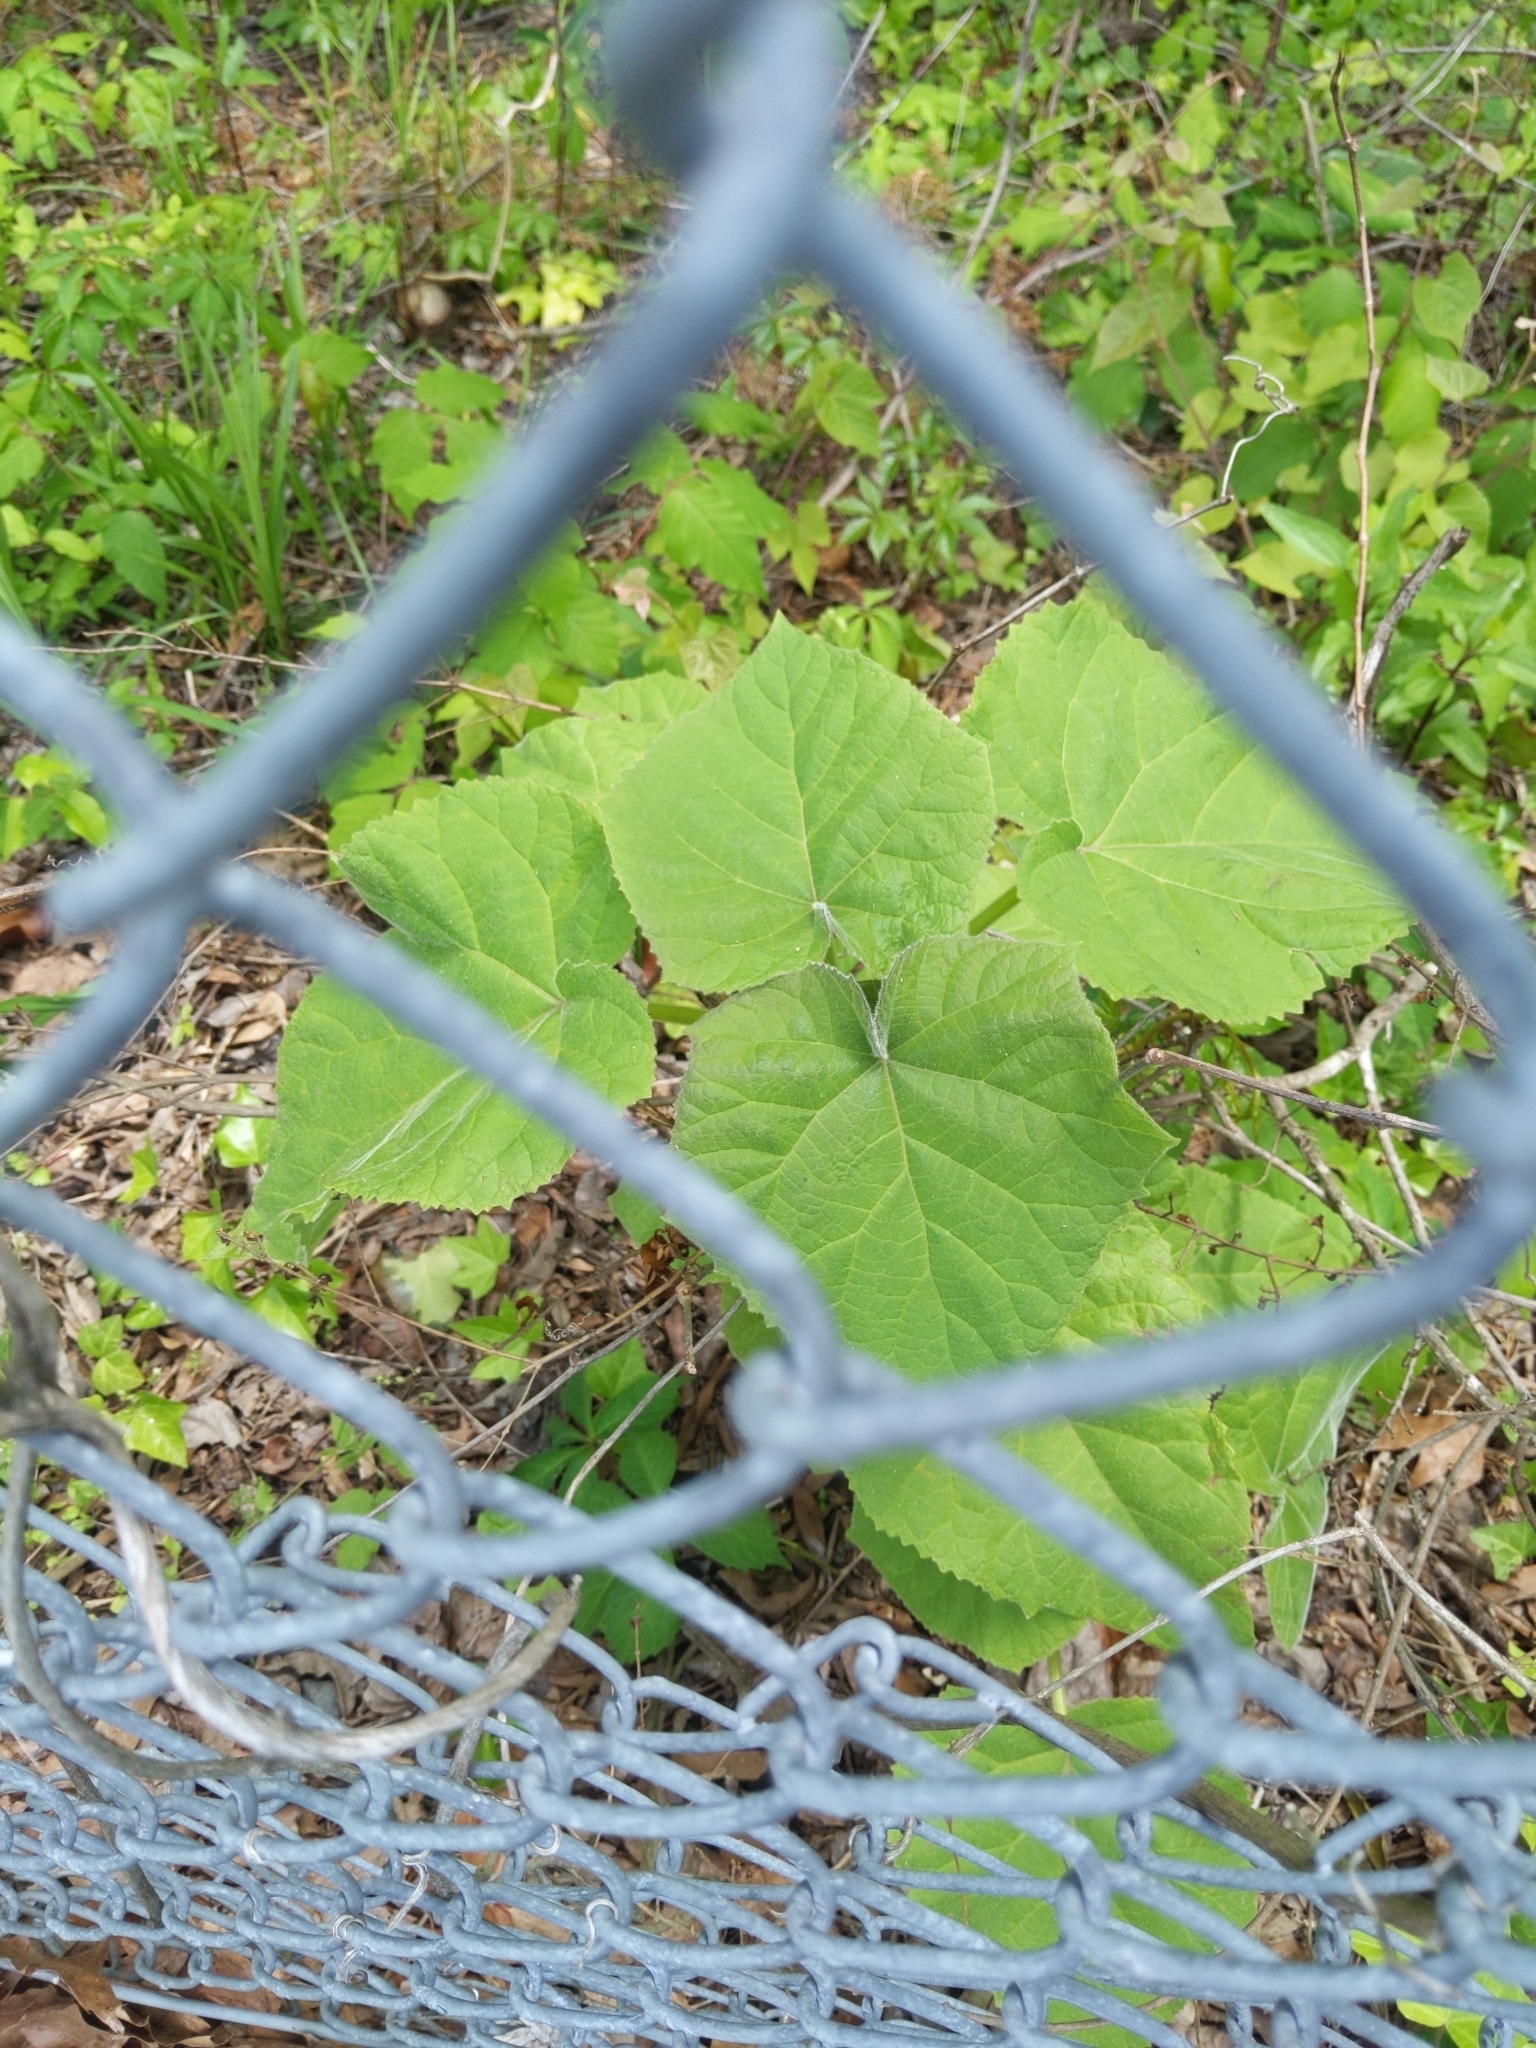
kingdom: Plantae
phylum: Tracheophyta
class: Magnoliopsida
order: Lamiales
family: Paulowniaceae
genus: Paulownia
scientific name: Paulownia tomentosa
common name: Foxglove-tree
